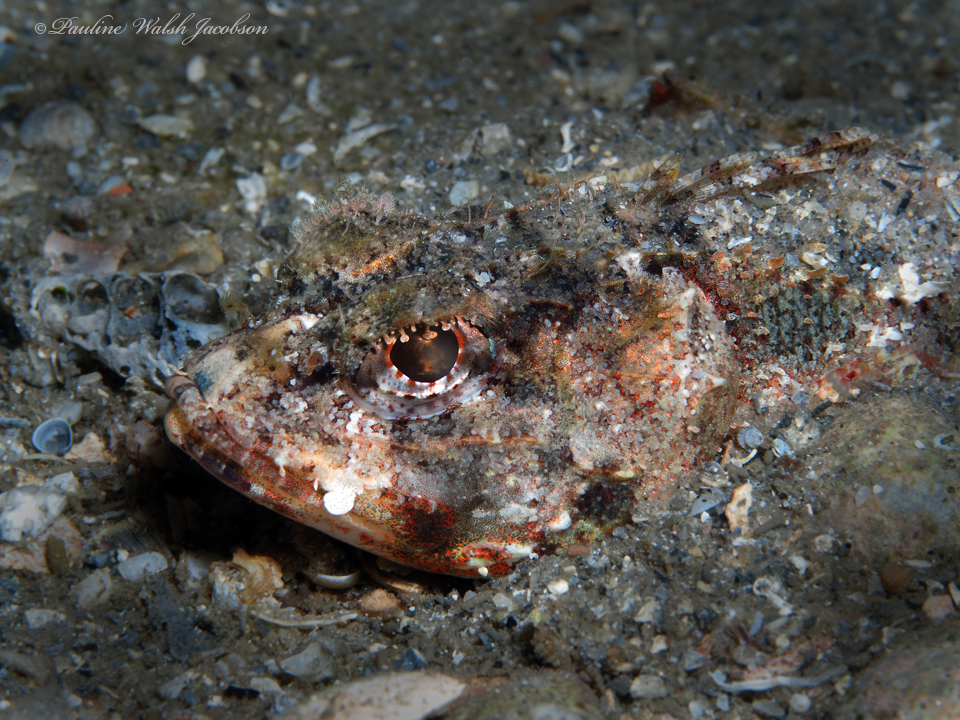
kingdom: Animalia
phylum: Chordata
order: Scorpaeniformes
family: Scorpaenidae
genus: Scorpaena
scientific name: Scorpaena inermis
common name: Mushroom scorpionfish
